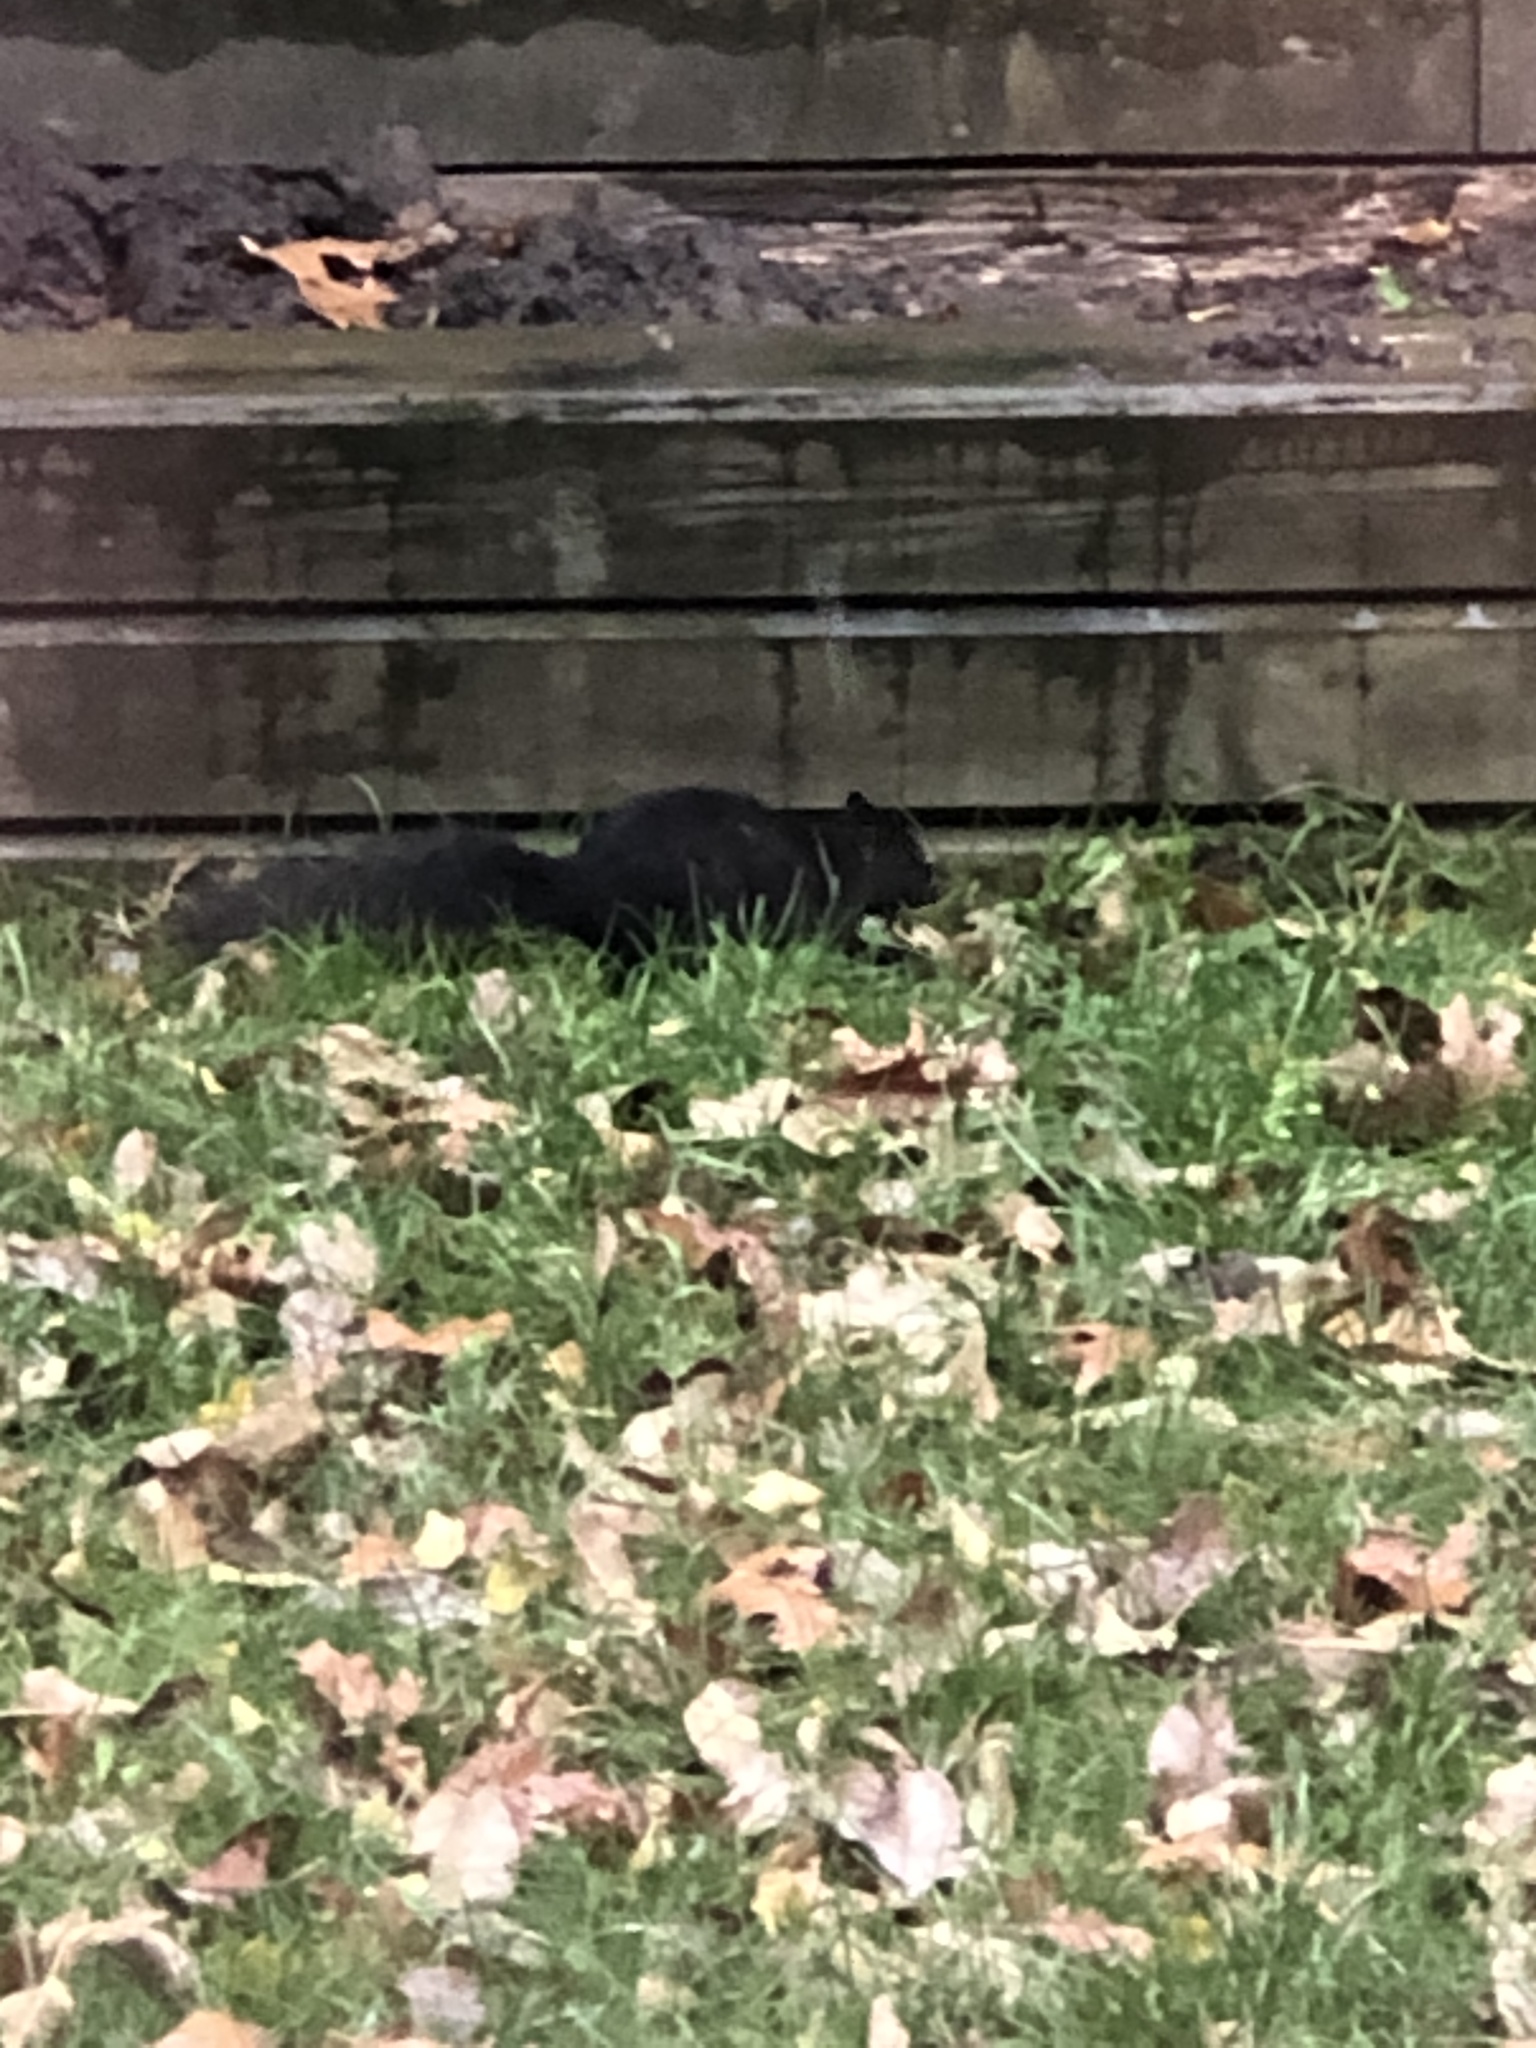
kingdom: Animalia
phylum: Chordata
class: Mammalia
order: Rodentia
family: Sciuridae
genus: Sciurus
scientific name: Sciurus carolinensis
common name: Eastern gray squirrel
